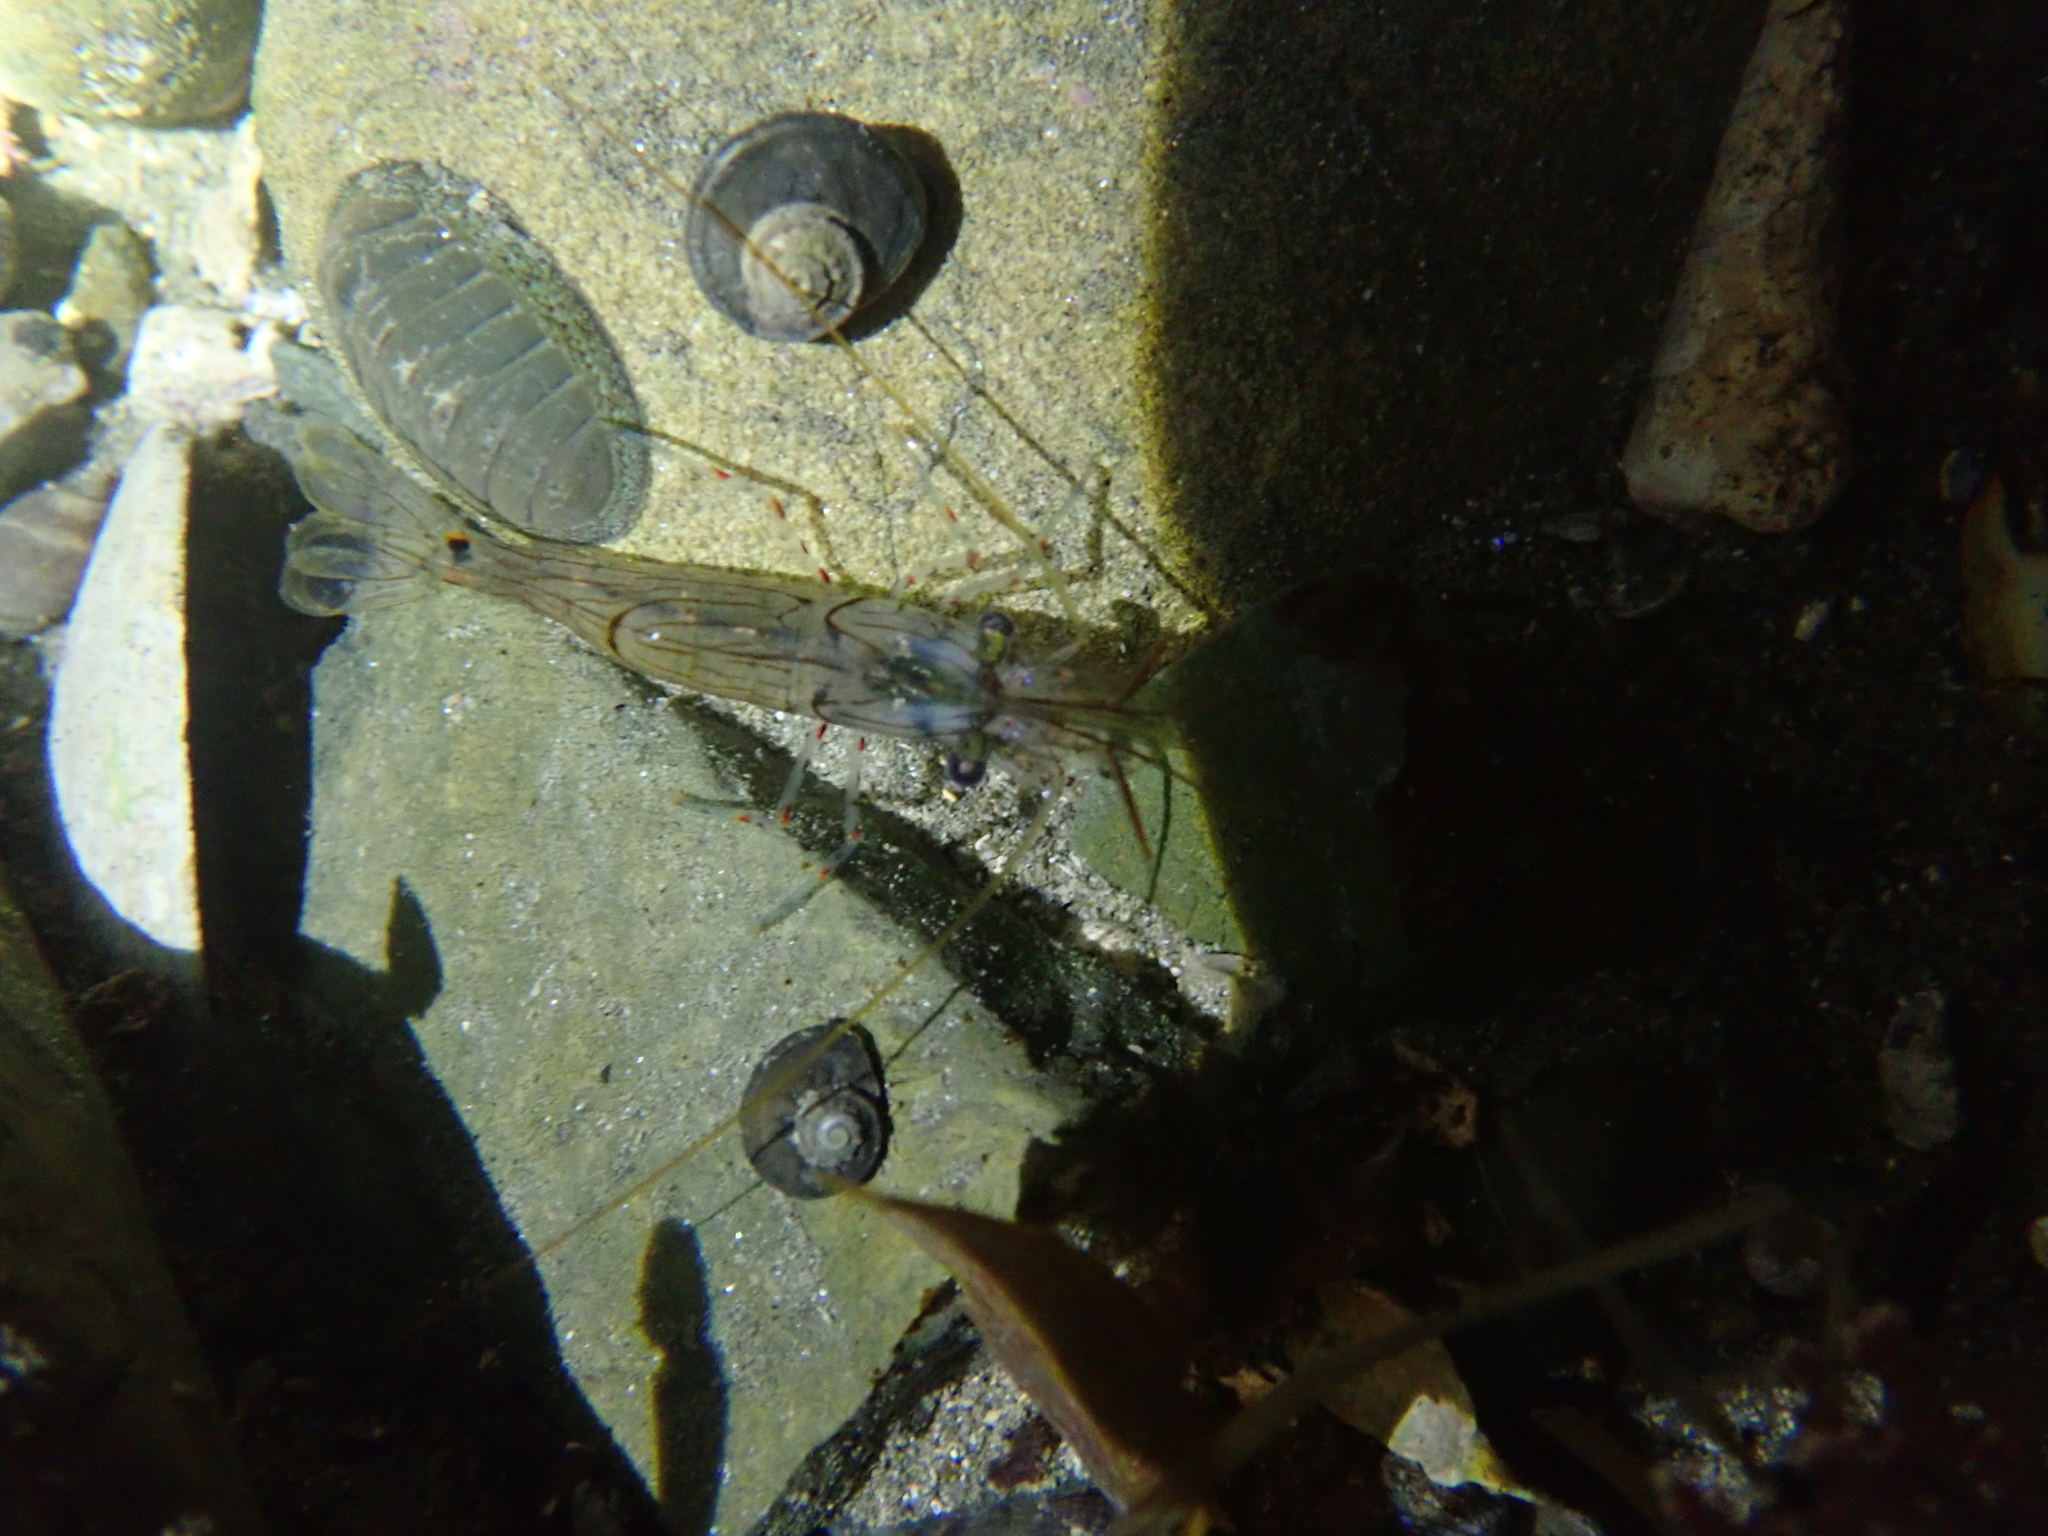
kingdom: Animalia
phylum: Arthropoda
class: Malacostraca
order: Decapoda
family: Palaemonidae
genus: Palaemon
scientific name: Palaemon affinis
